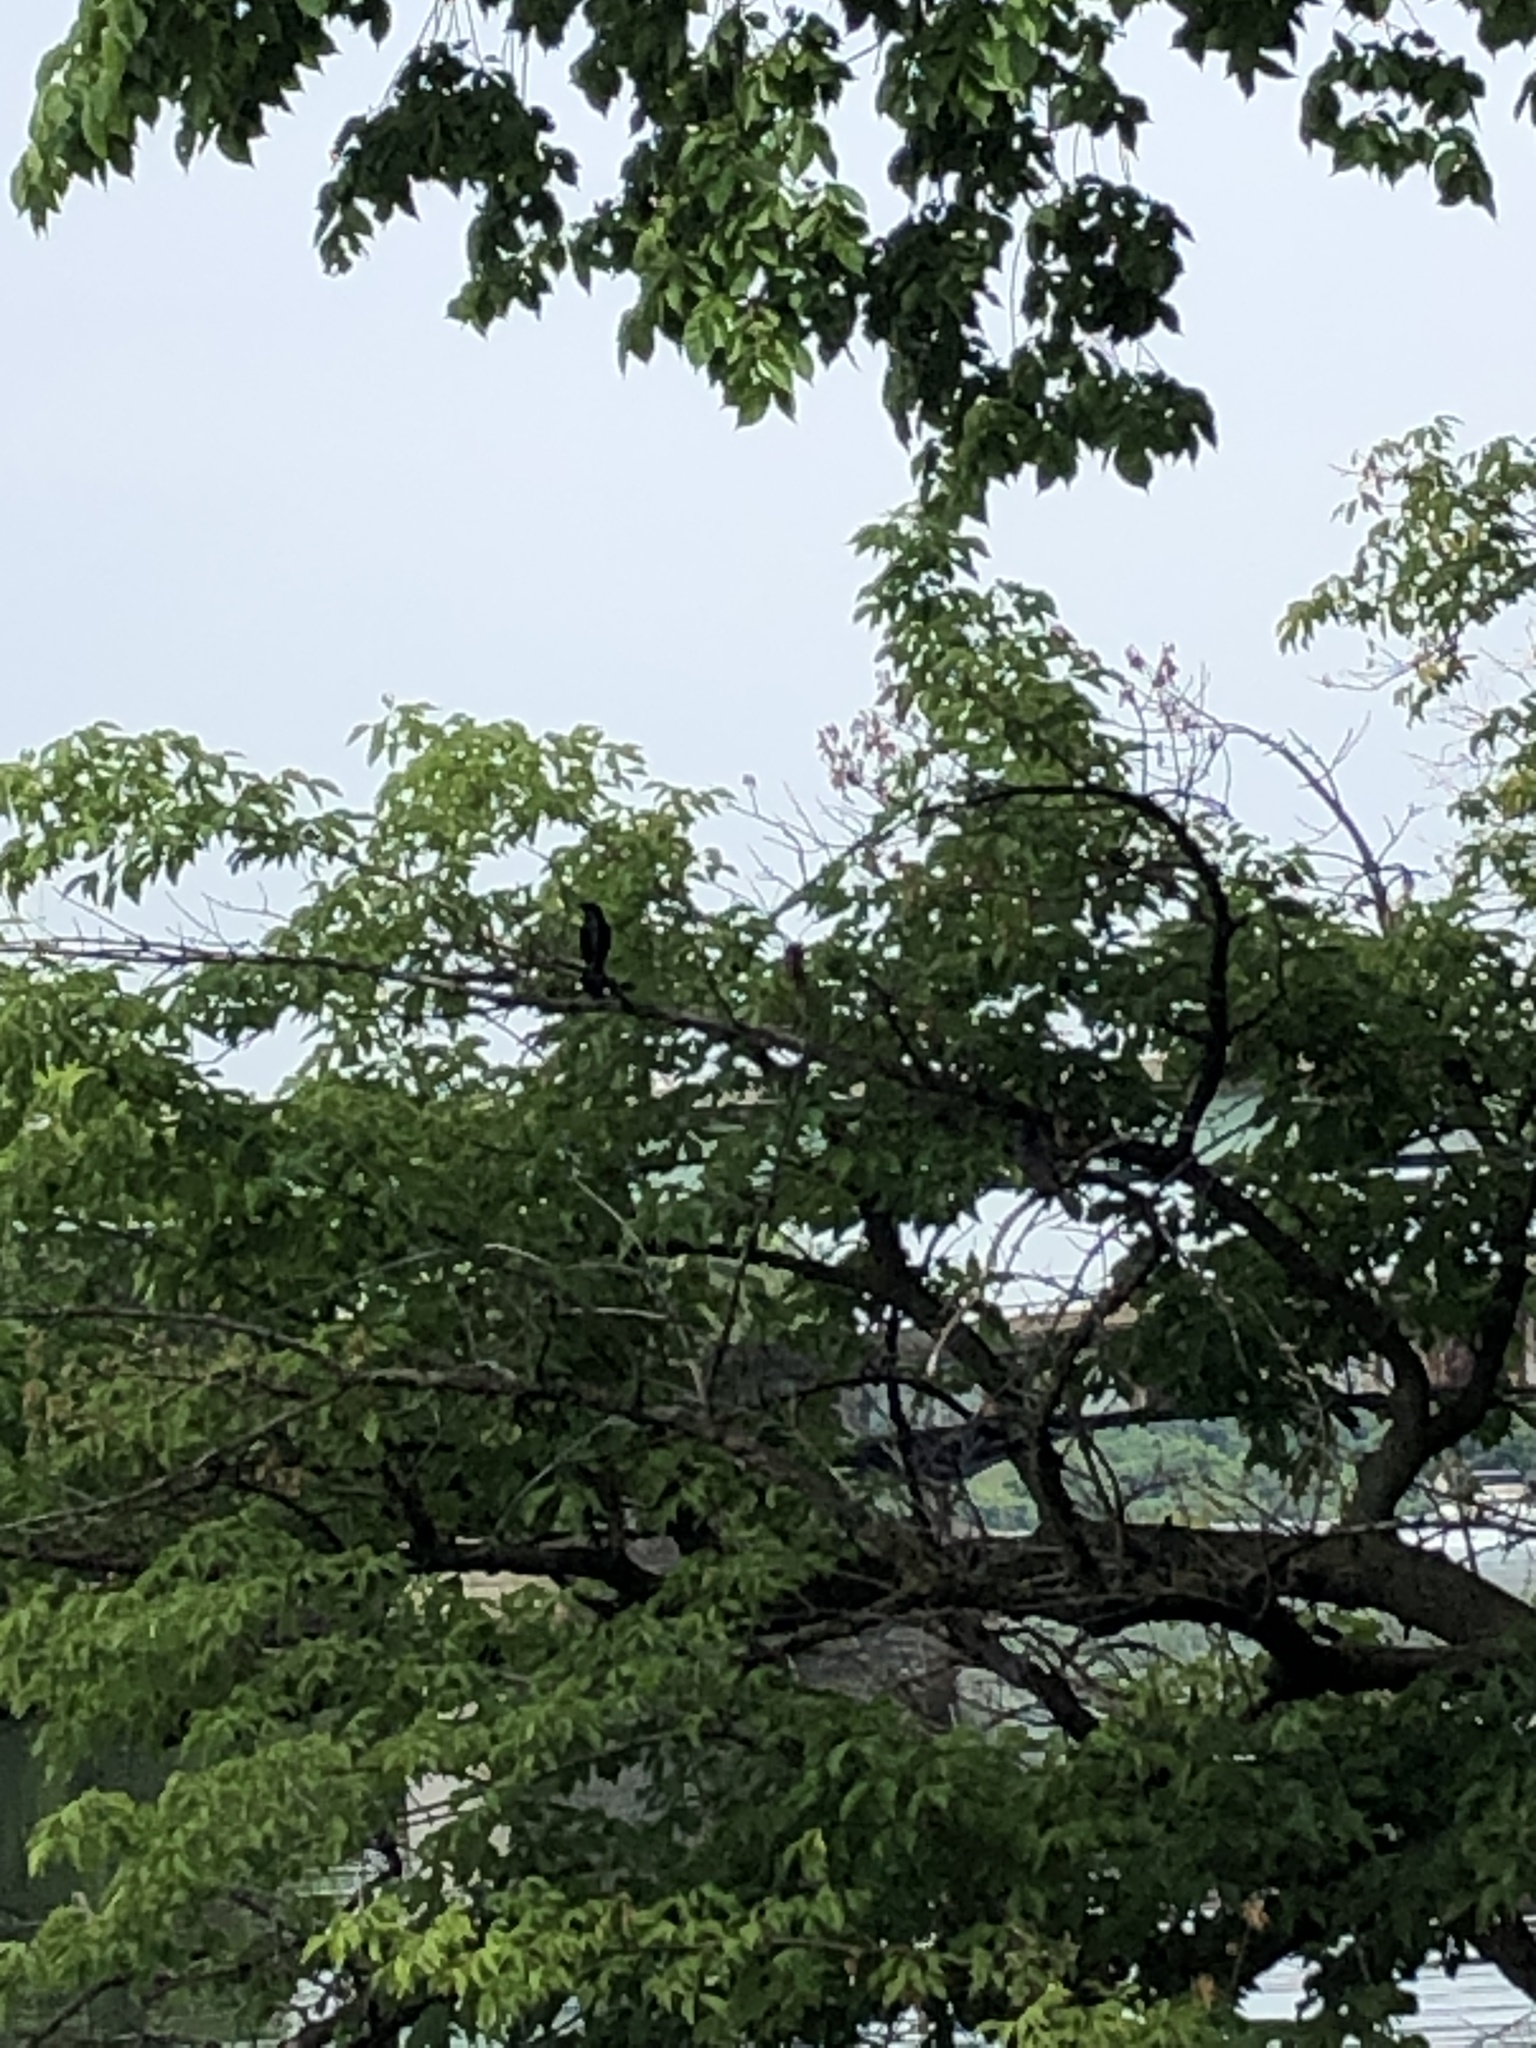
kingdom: Animalia
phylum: Chordata
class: Aves
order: Passeriformes
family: Icteridae
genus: Quiscalus
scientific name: Quiscalus quiscula
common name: Common grackle
